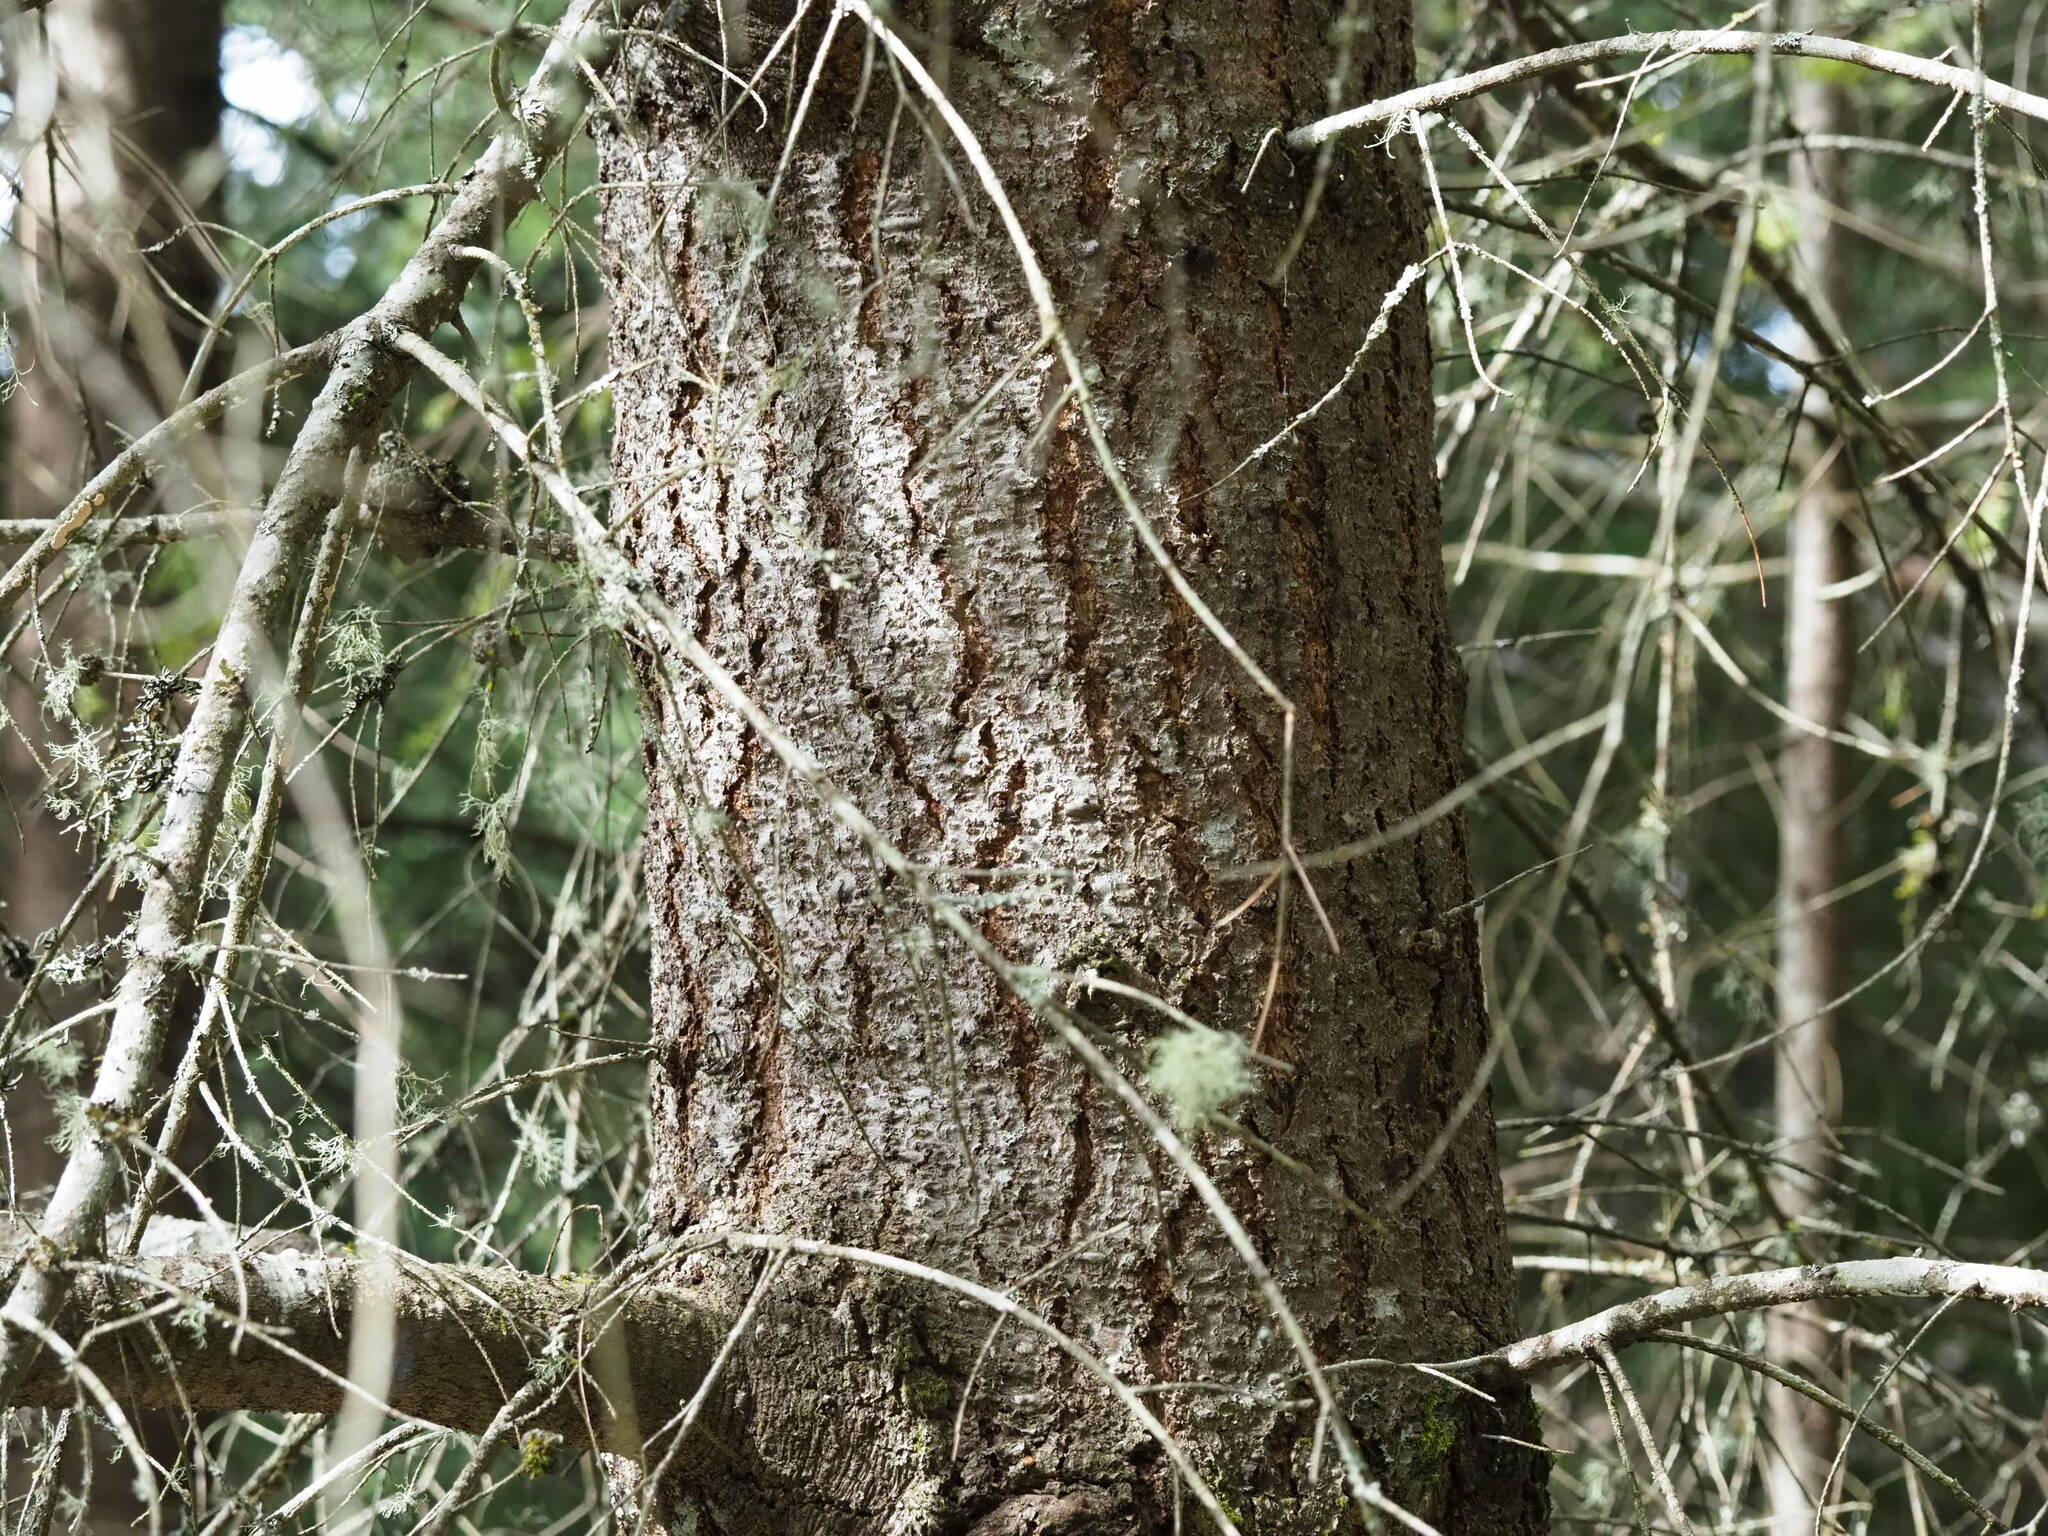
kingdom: Plantae
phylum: Tracheophyta
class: Pinopsida
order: Pinales
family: Pinaceae
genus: Pseudotsuga
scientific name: Pseudotsuga menziesii
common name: Douglas fir
